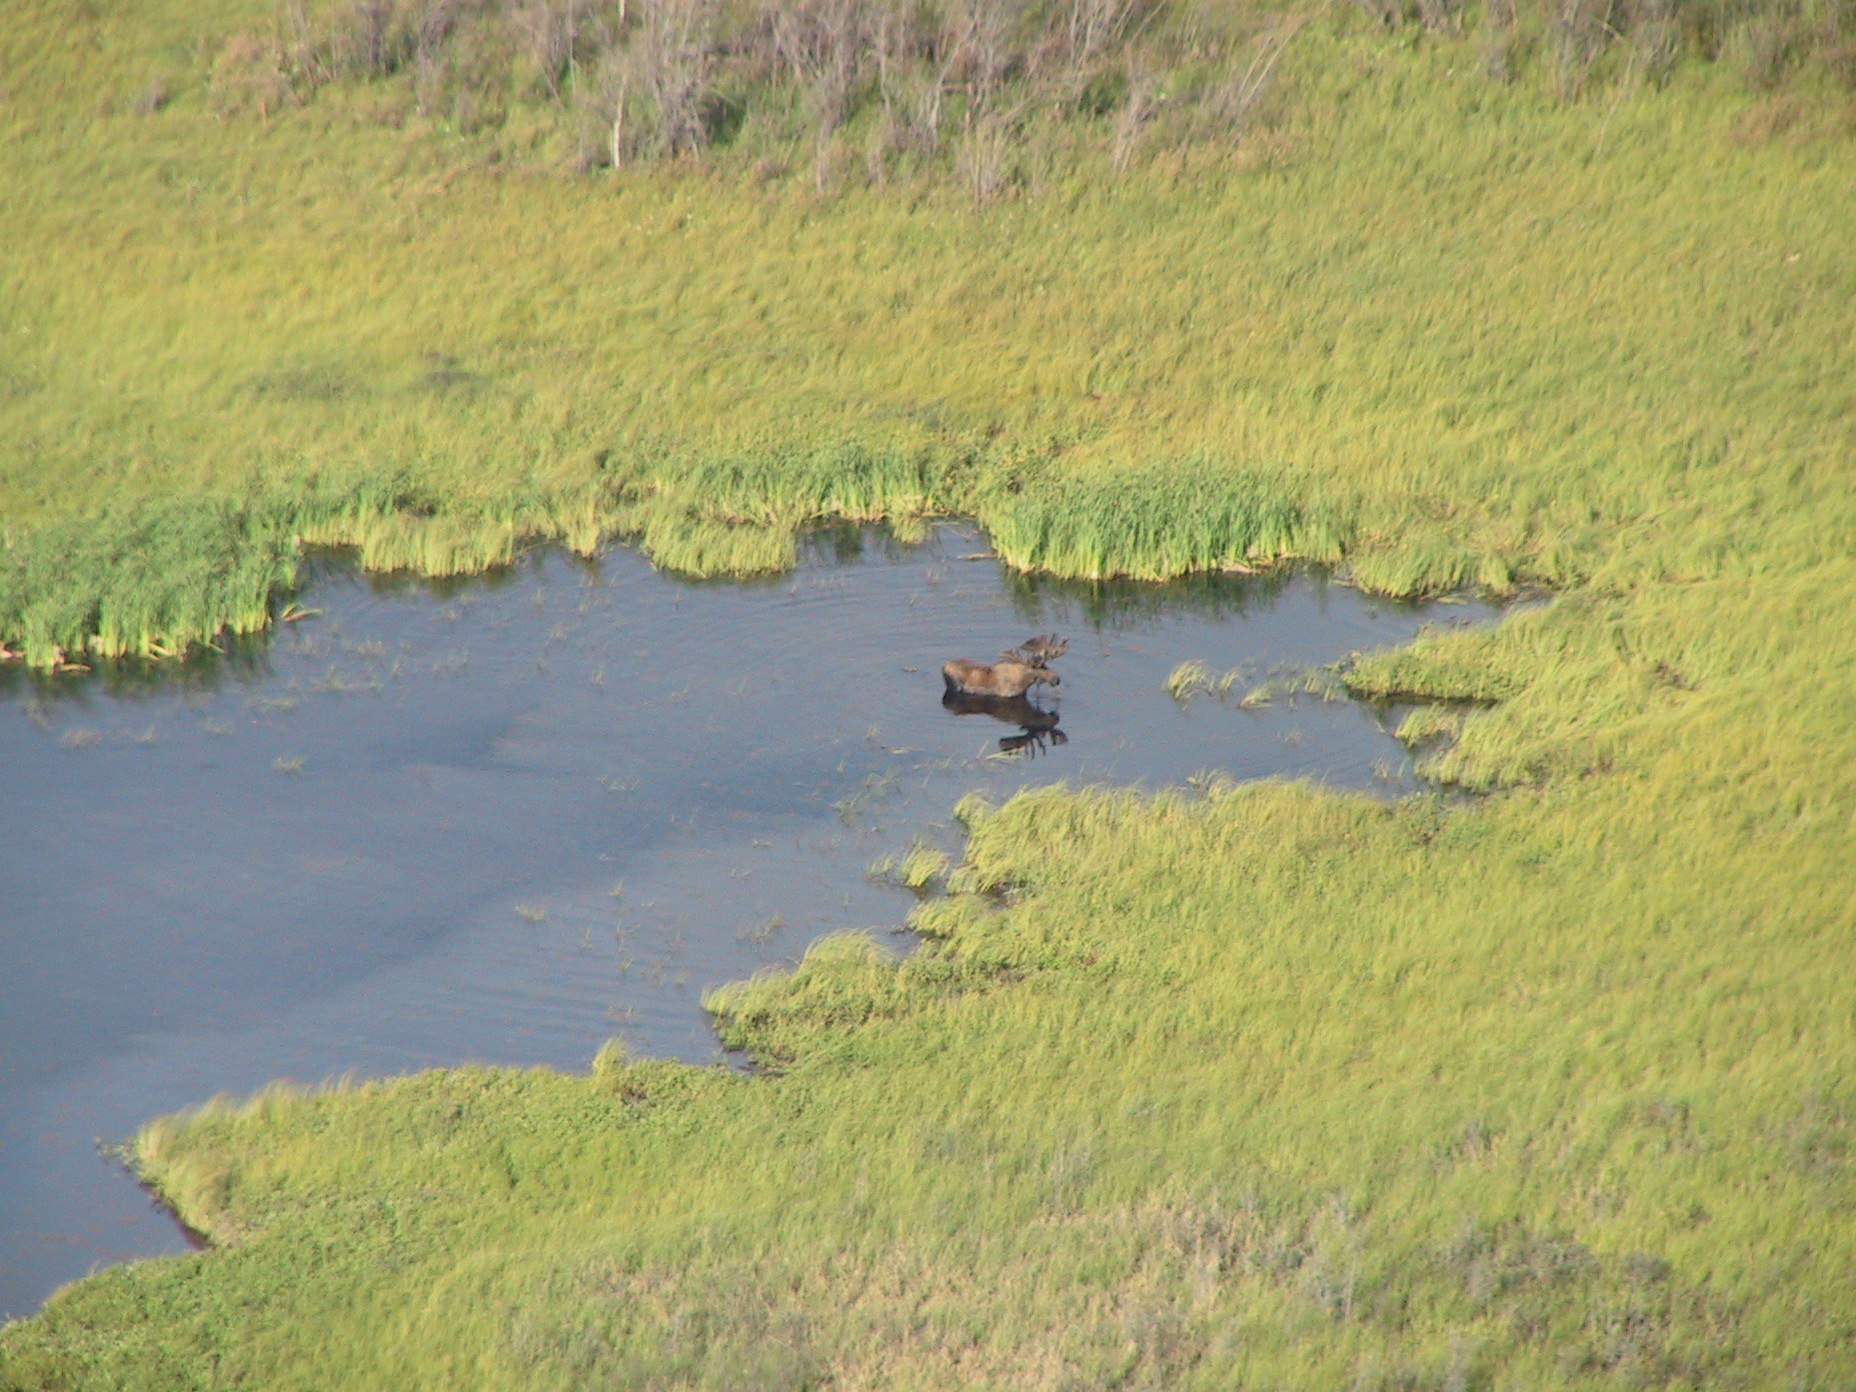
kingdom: Animalia
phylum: Chordata
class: Mammalia
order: Artiodactyla
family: Cervidae
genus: Alces
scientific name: Alces alces
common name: Moose
